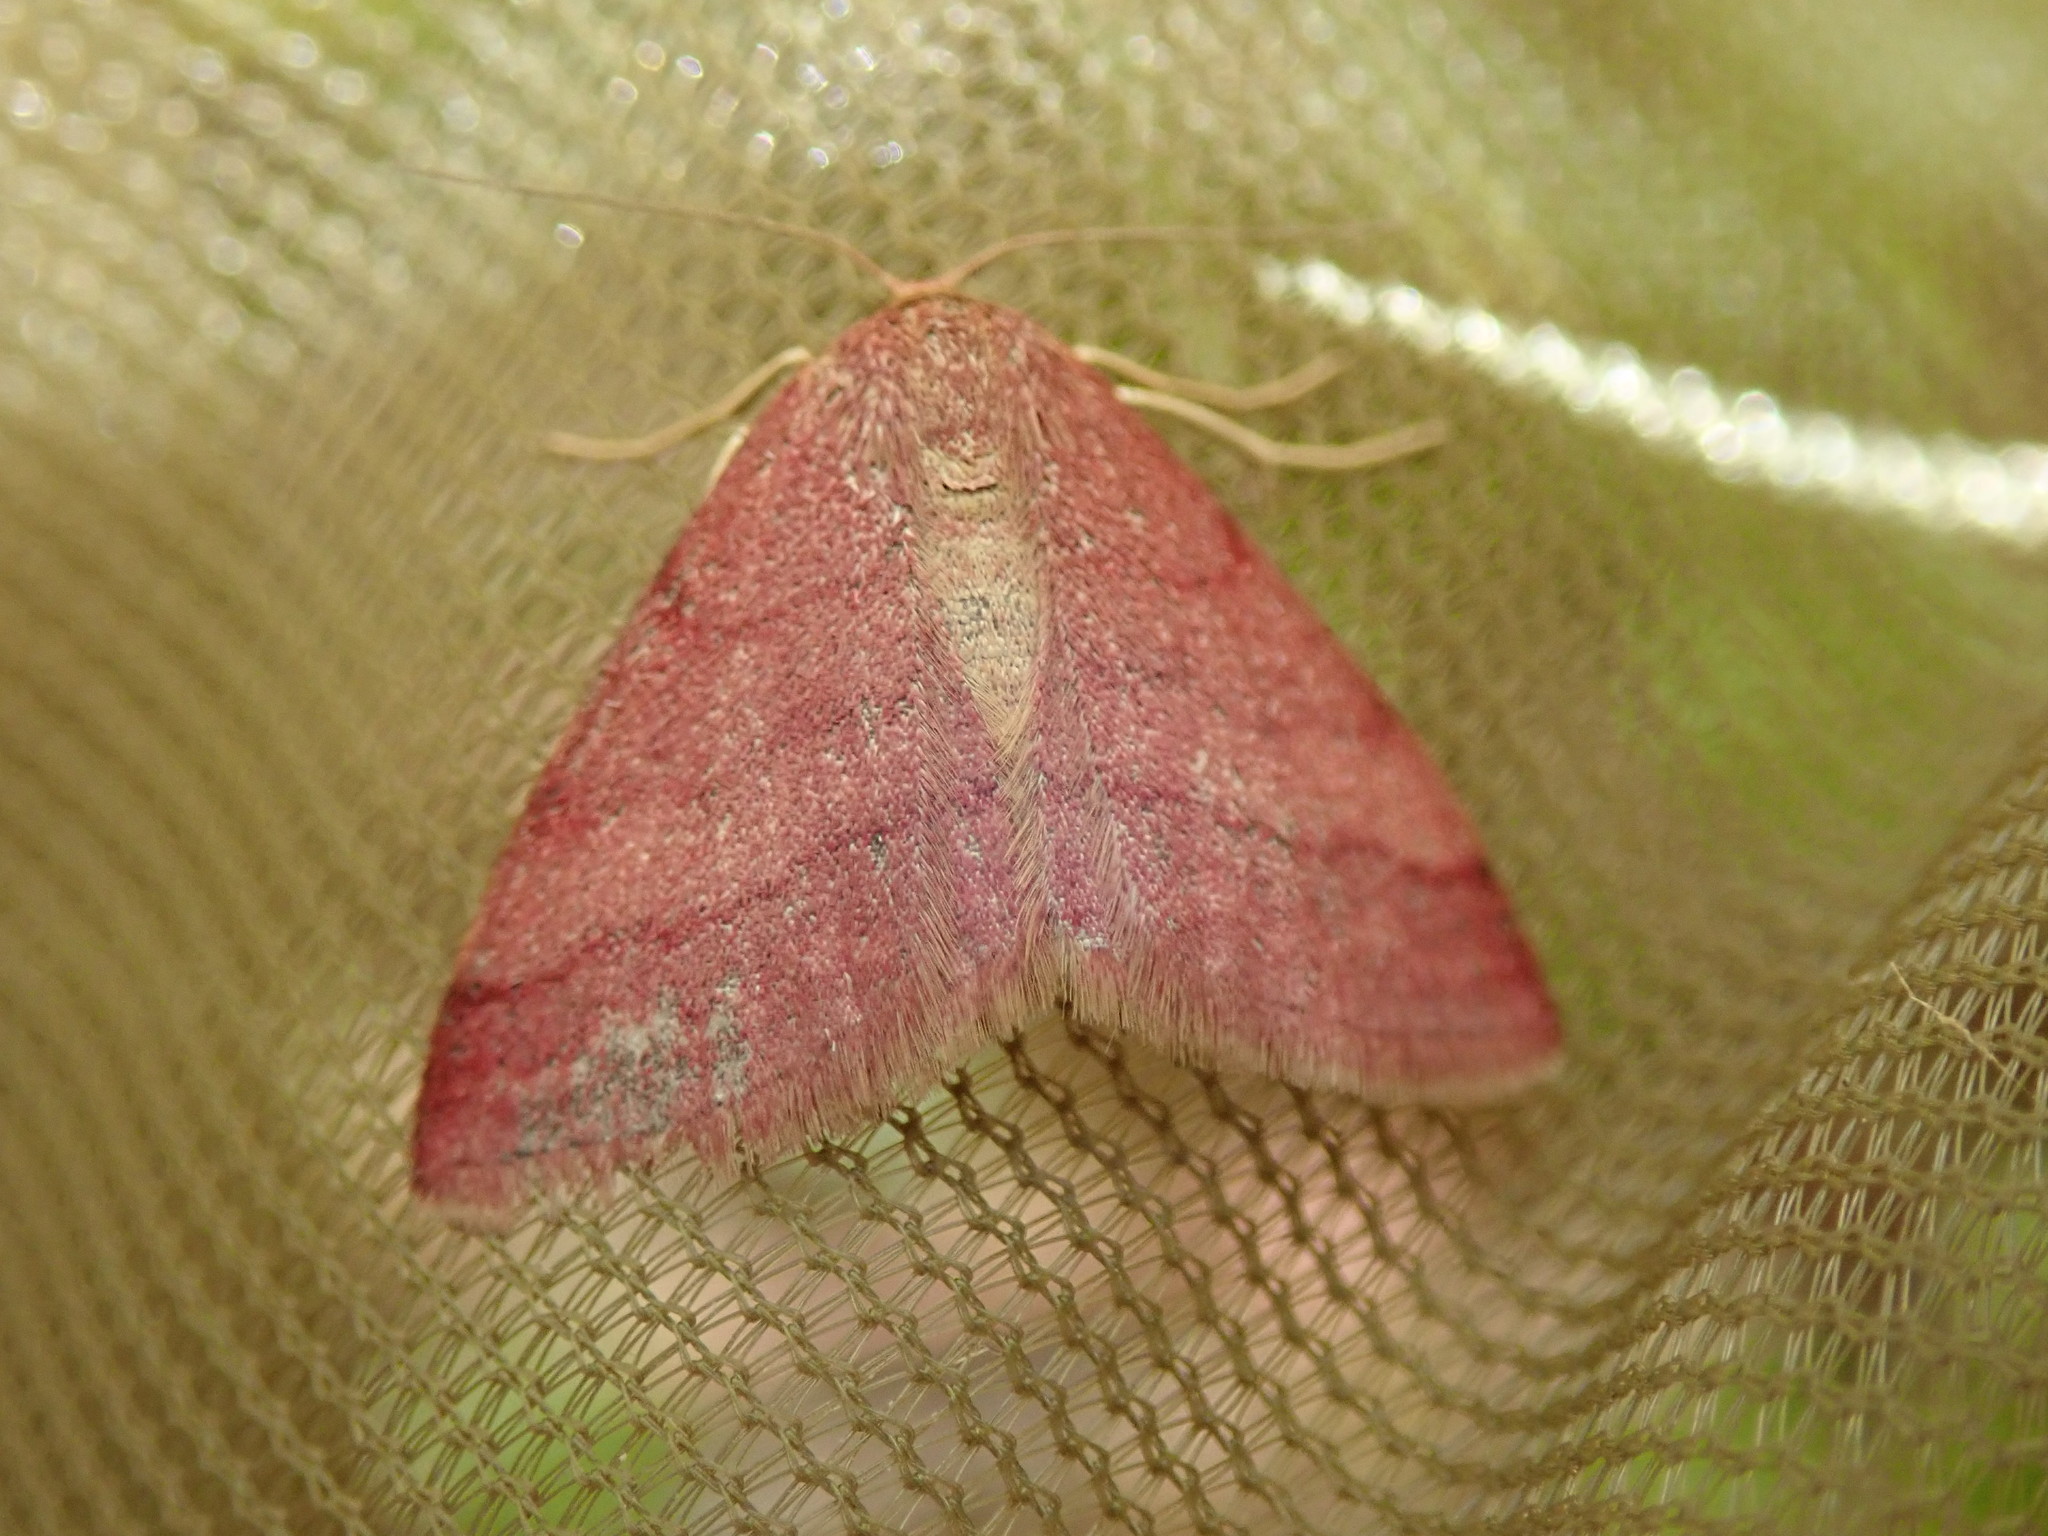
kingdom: Animalia
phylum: Arthropoda
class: Insecta
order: Lepidoptera
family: Geometridae
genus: Scopula
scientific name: Scopula rubiginata
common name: Tawny wave
